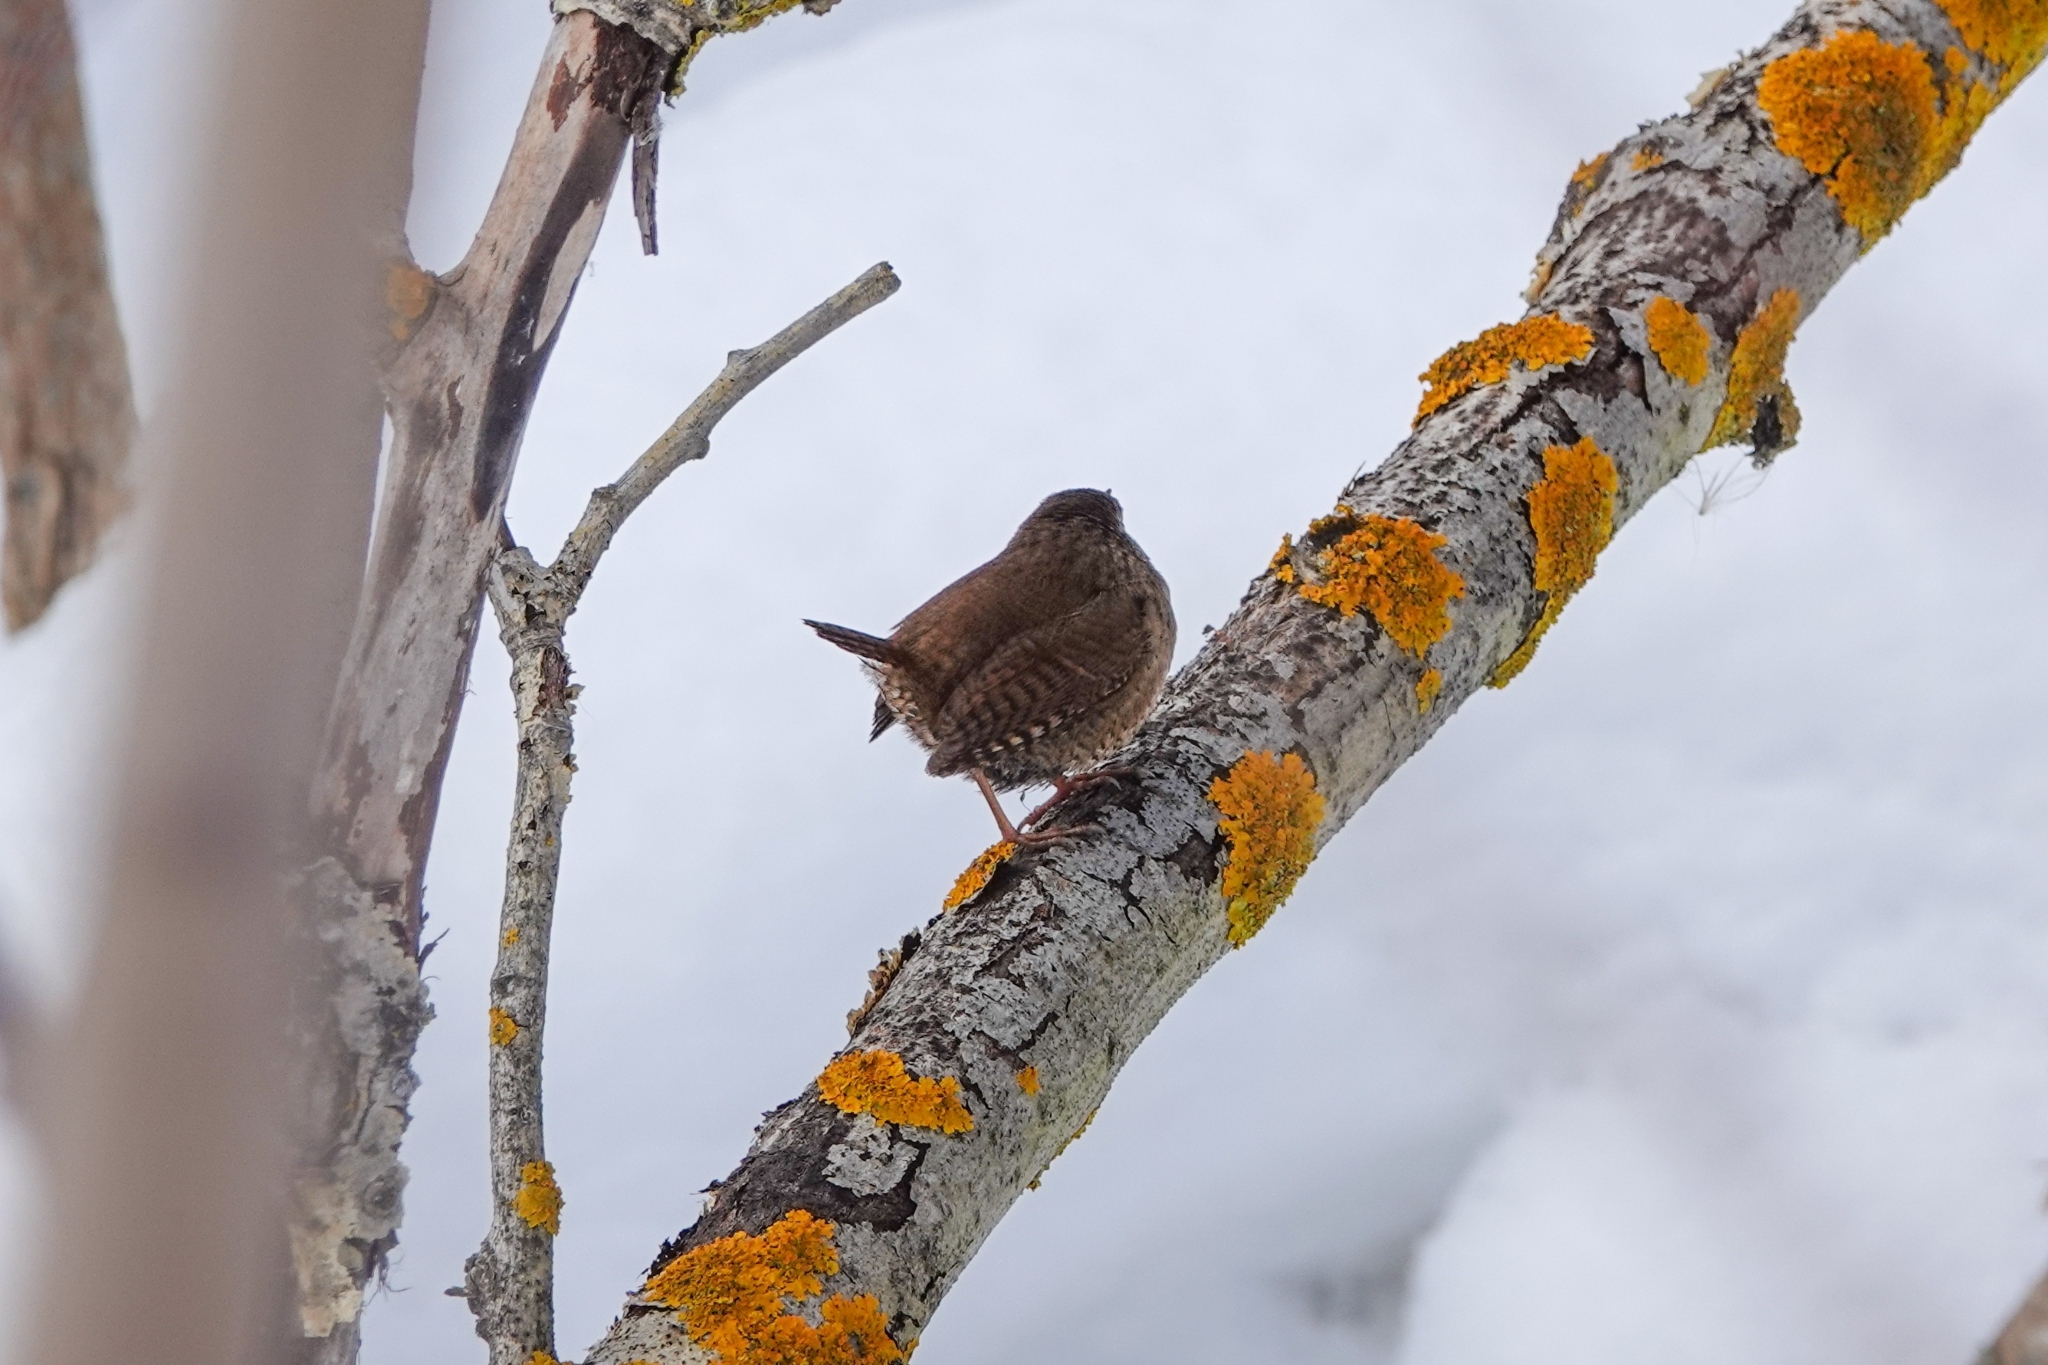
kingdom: Animalia
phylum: Chordata
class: Aves
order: Passeriformes
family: Troglodytidae
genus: Troglodytes
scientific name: Troglodytes troglodytes
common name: Eurasian wren
